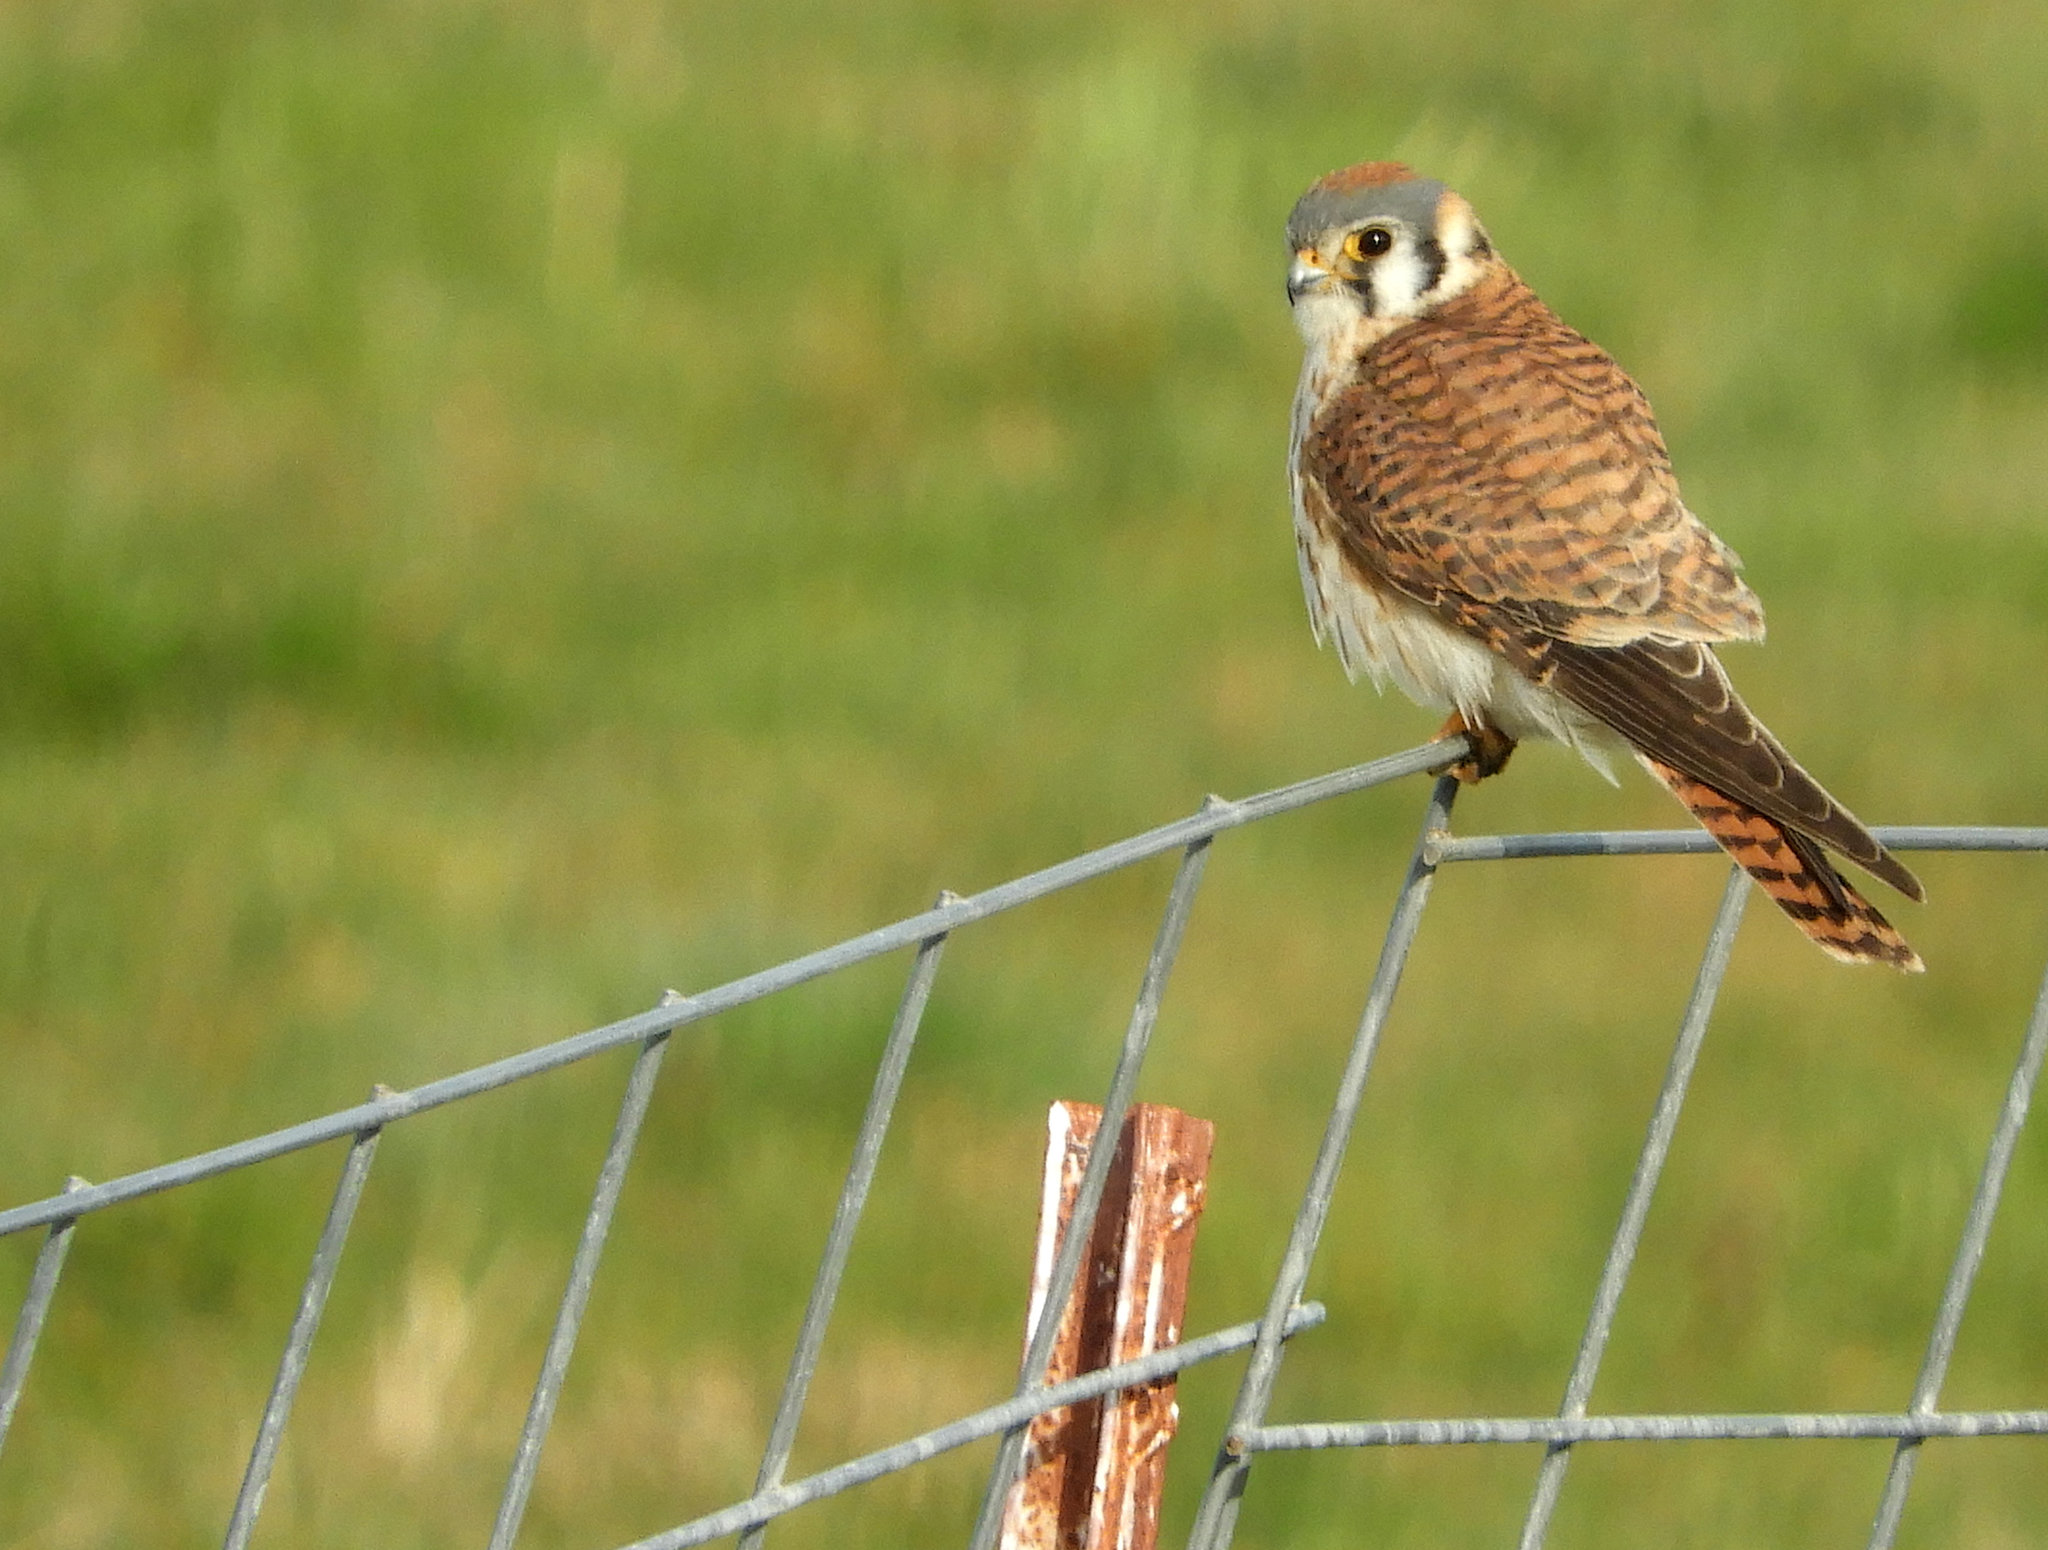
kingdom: Animalia
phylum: Chordata
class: Aves
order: Falconiformes
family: Falconidae
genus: Falco
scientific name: Falco sparverius
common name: American kestrel
